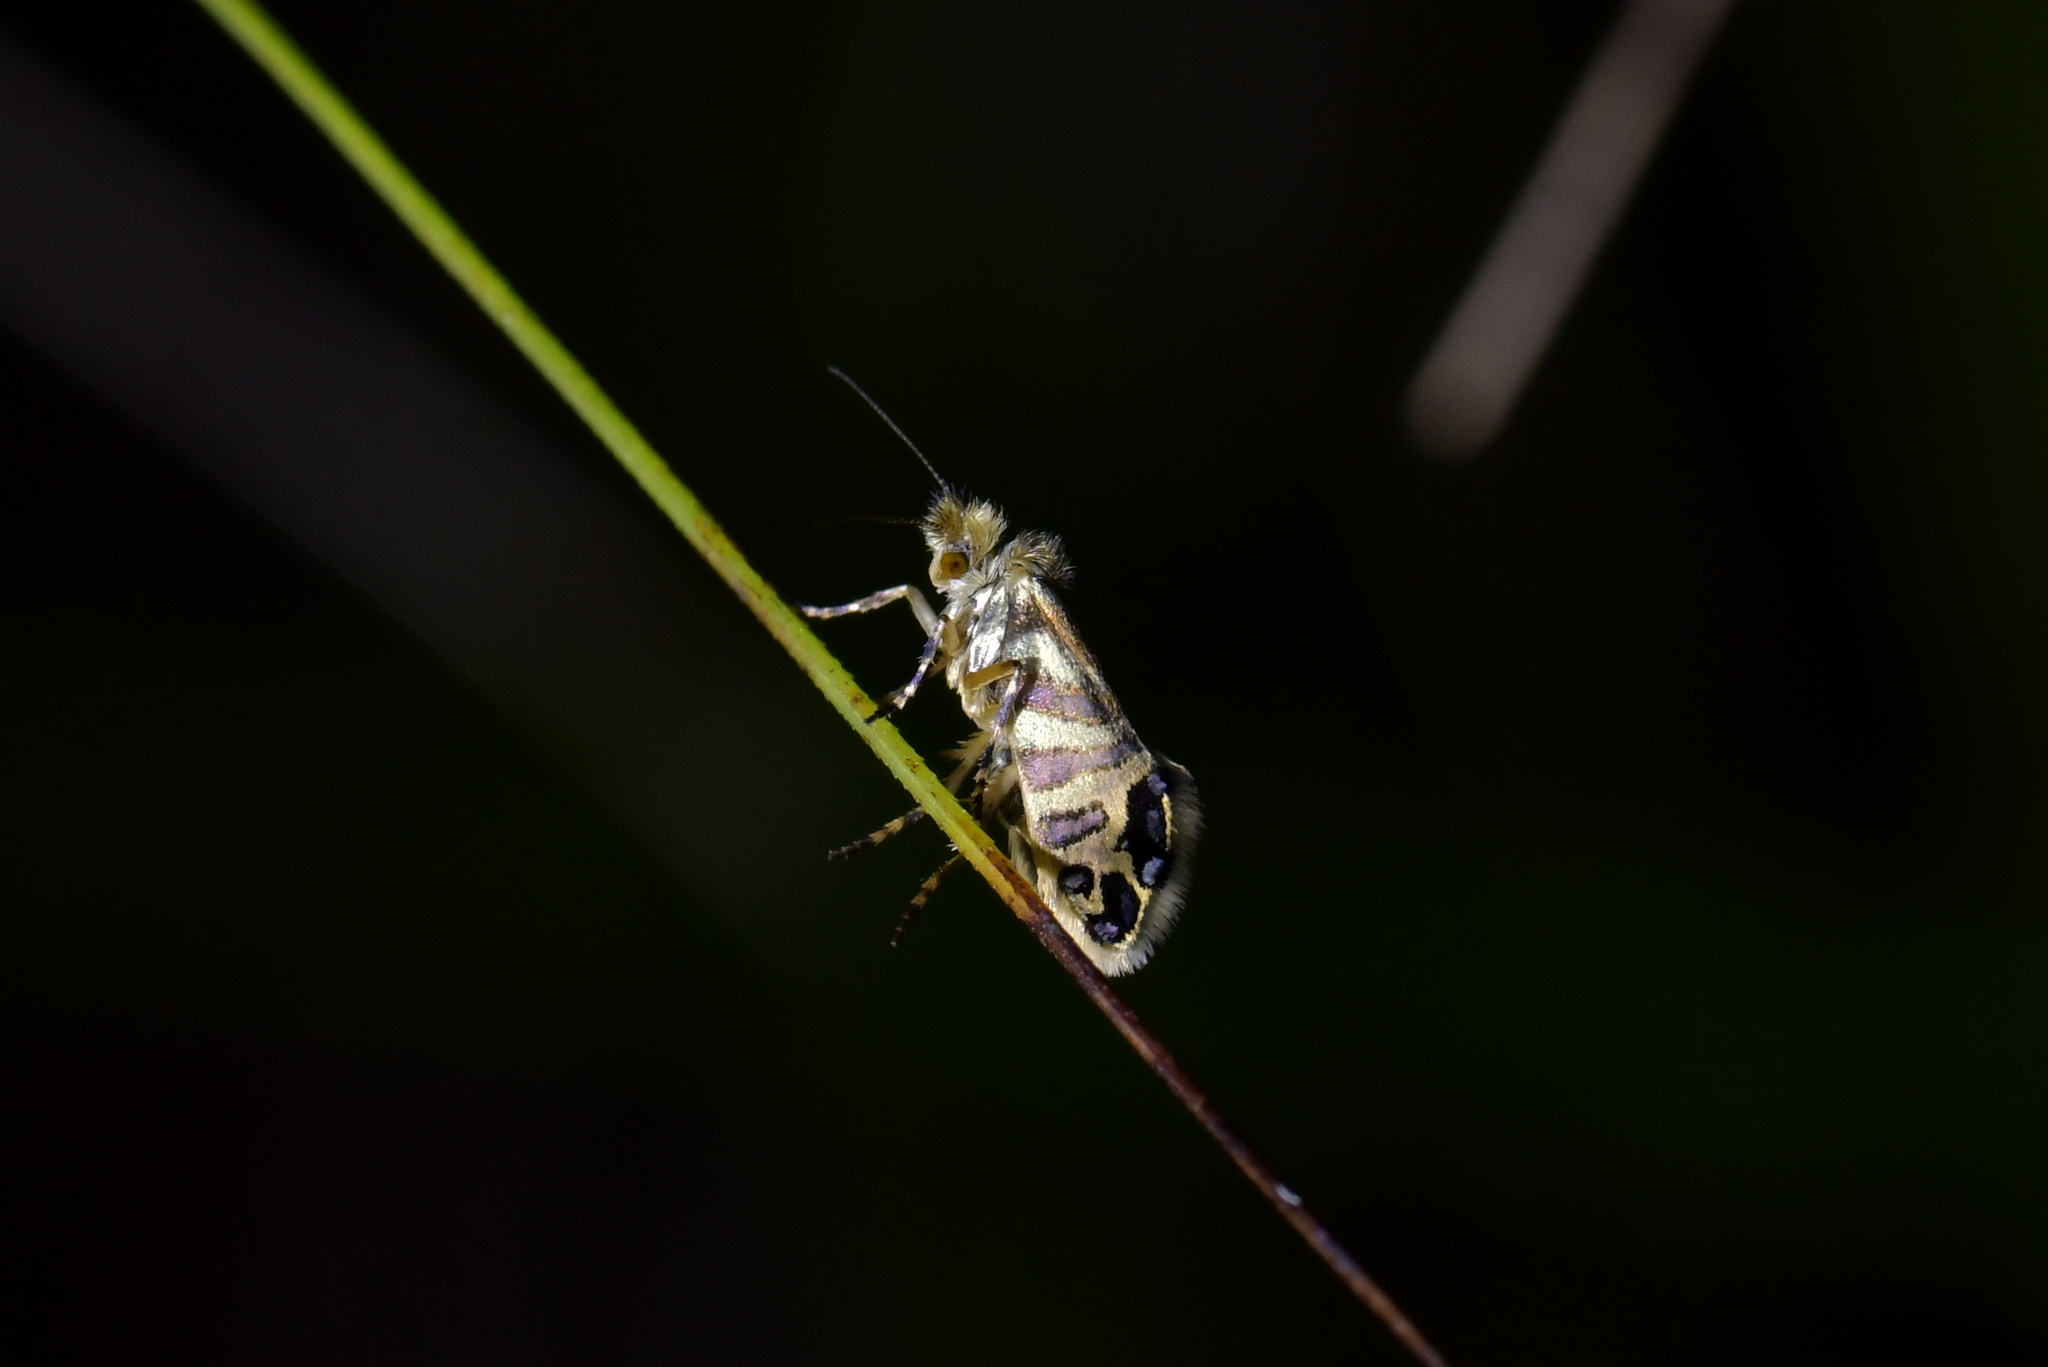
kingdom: Animalia
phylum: Arthropoda
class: Insecta
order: Lepidoptera
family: Micropterigidae
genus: Sabatinca
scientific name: Sabatinca doroxena
